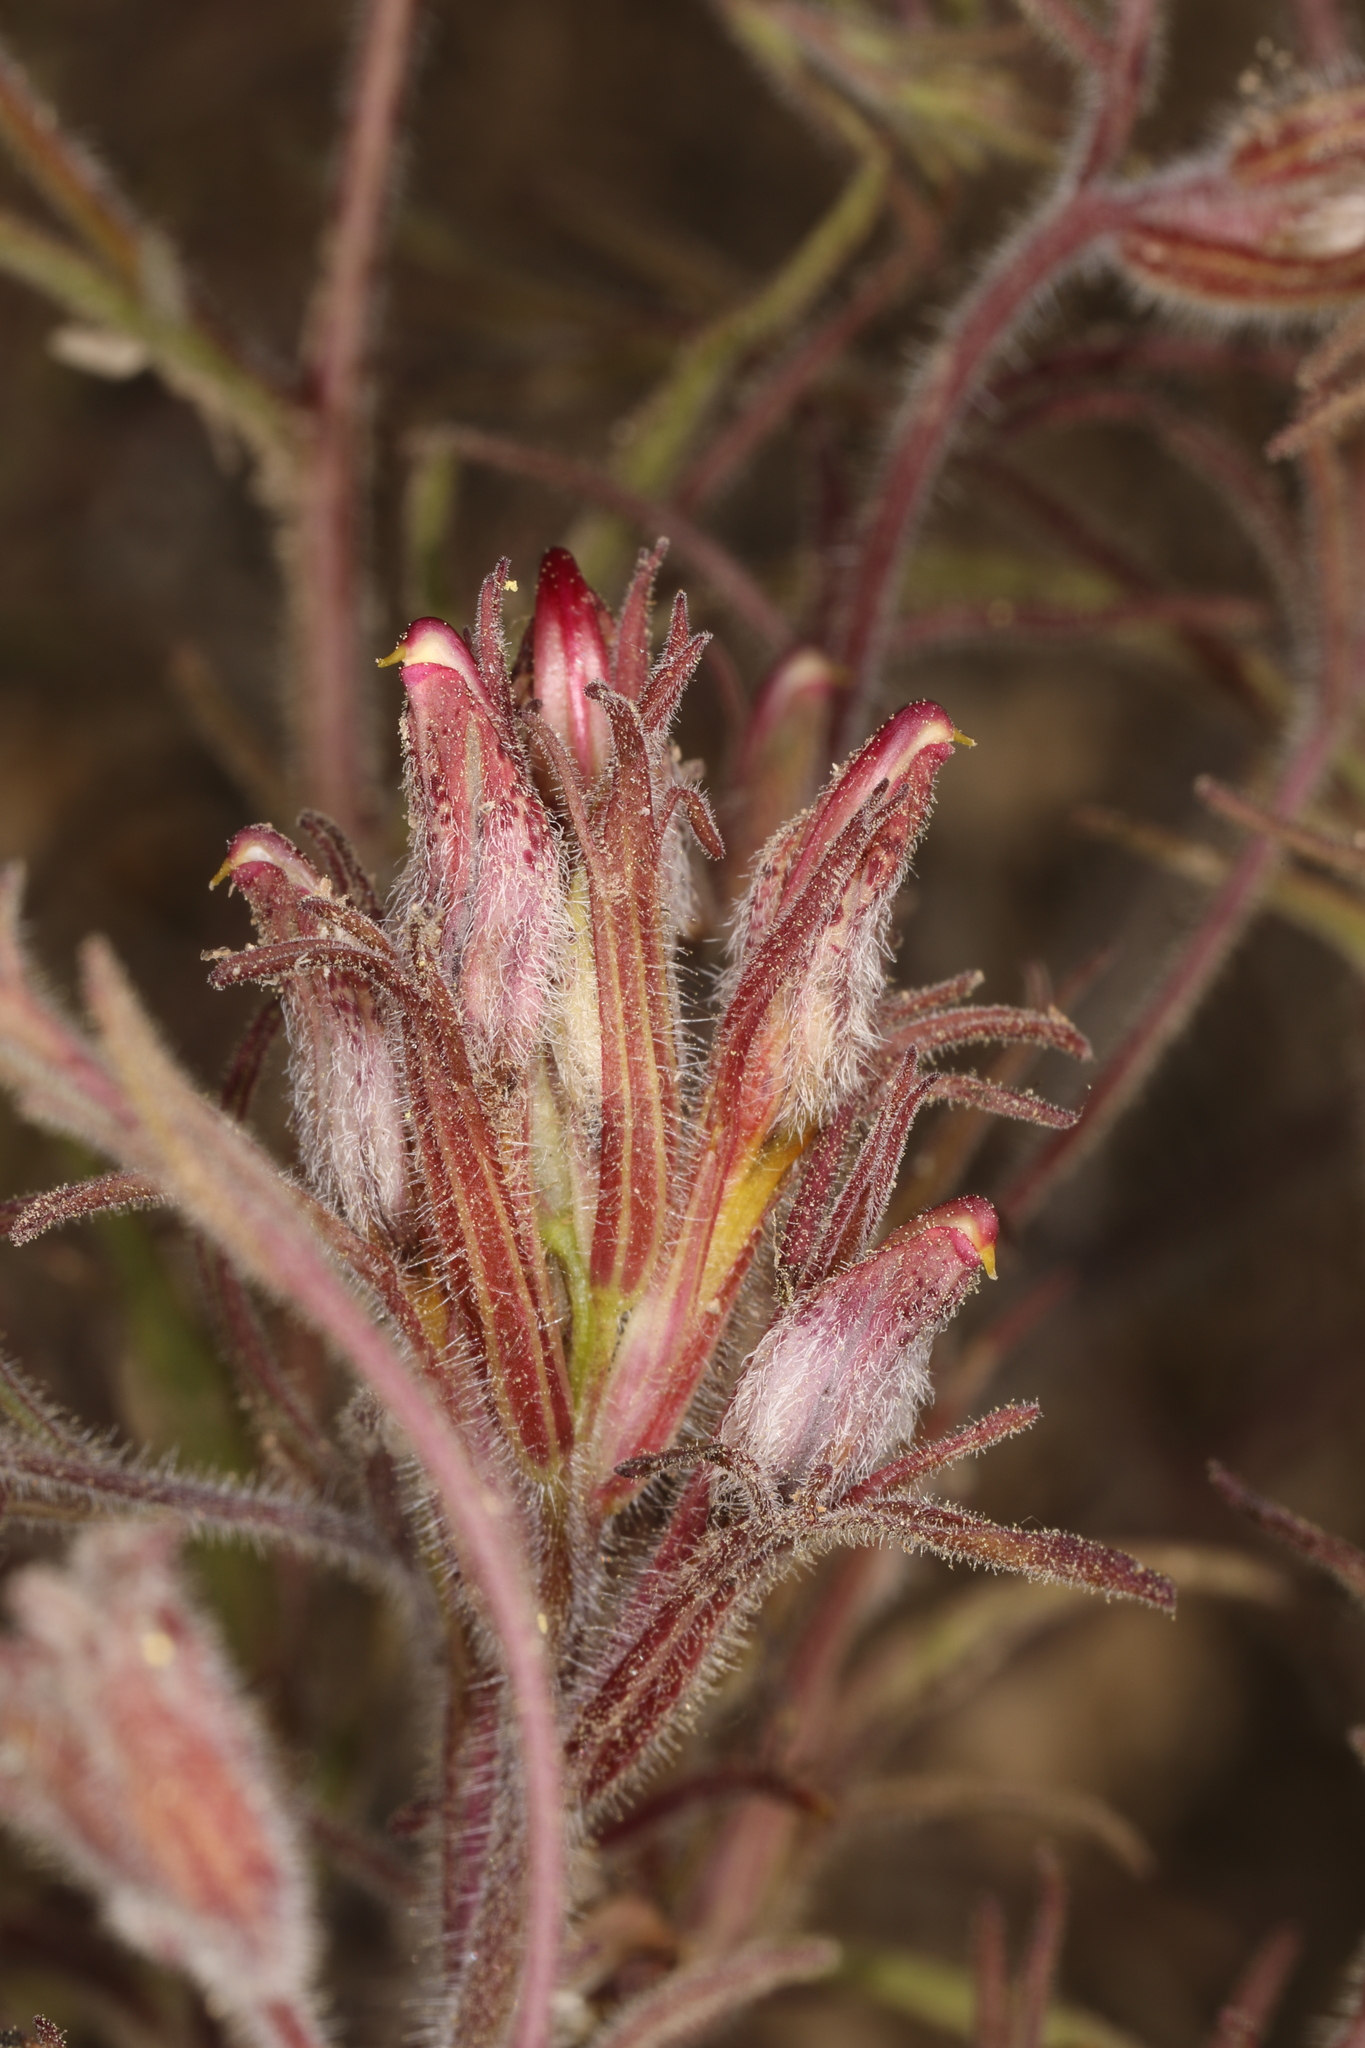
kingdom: Plantae
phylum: Tracheophyta
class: Magnoliopsida
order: Lamiales
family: Orobanchaceae
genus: Cordylanthus
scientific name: Cordylanthus kingii
